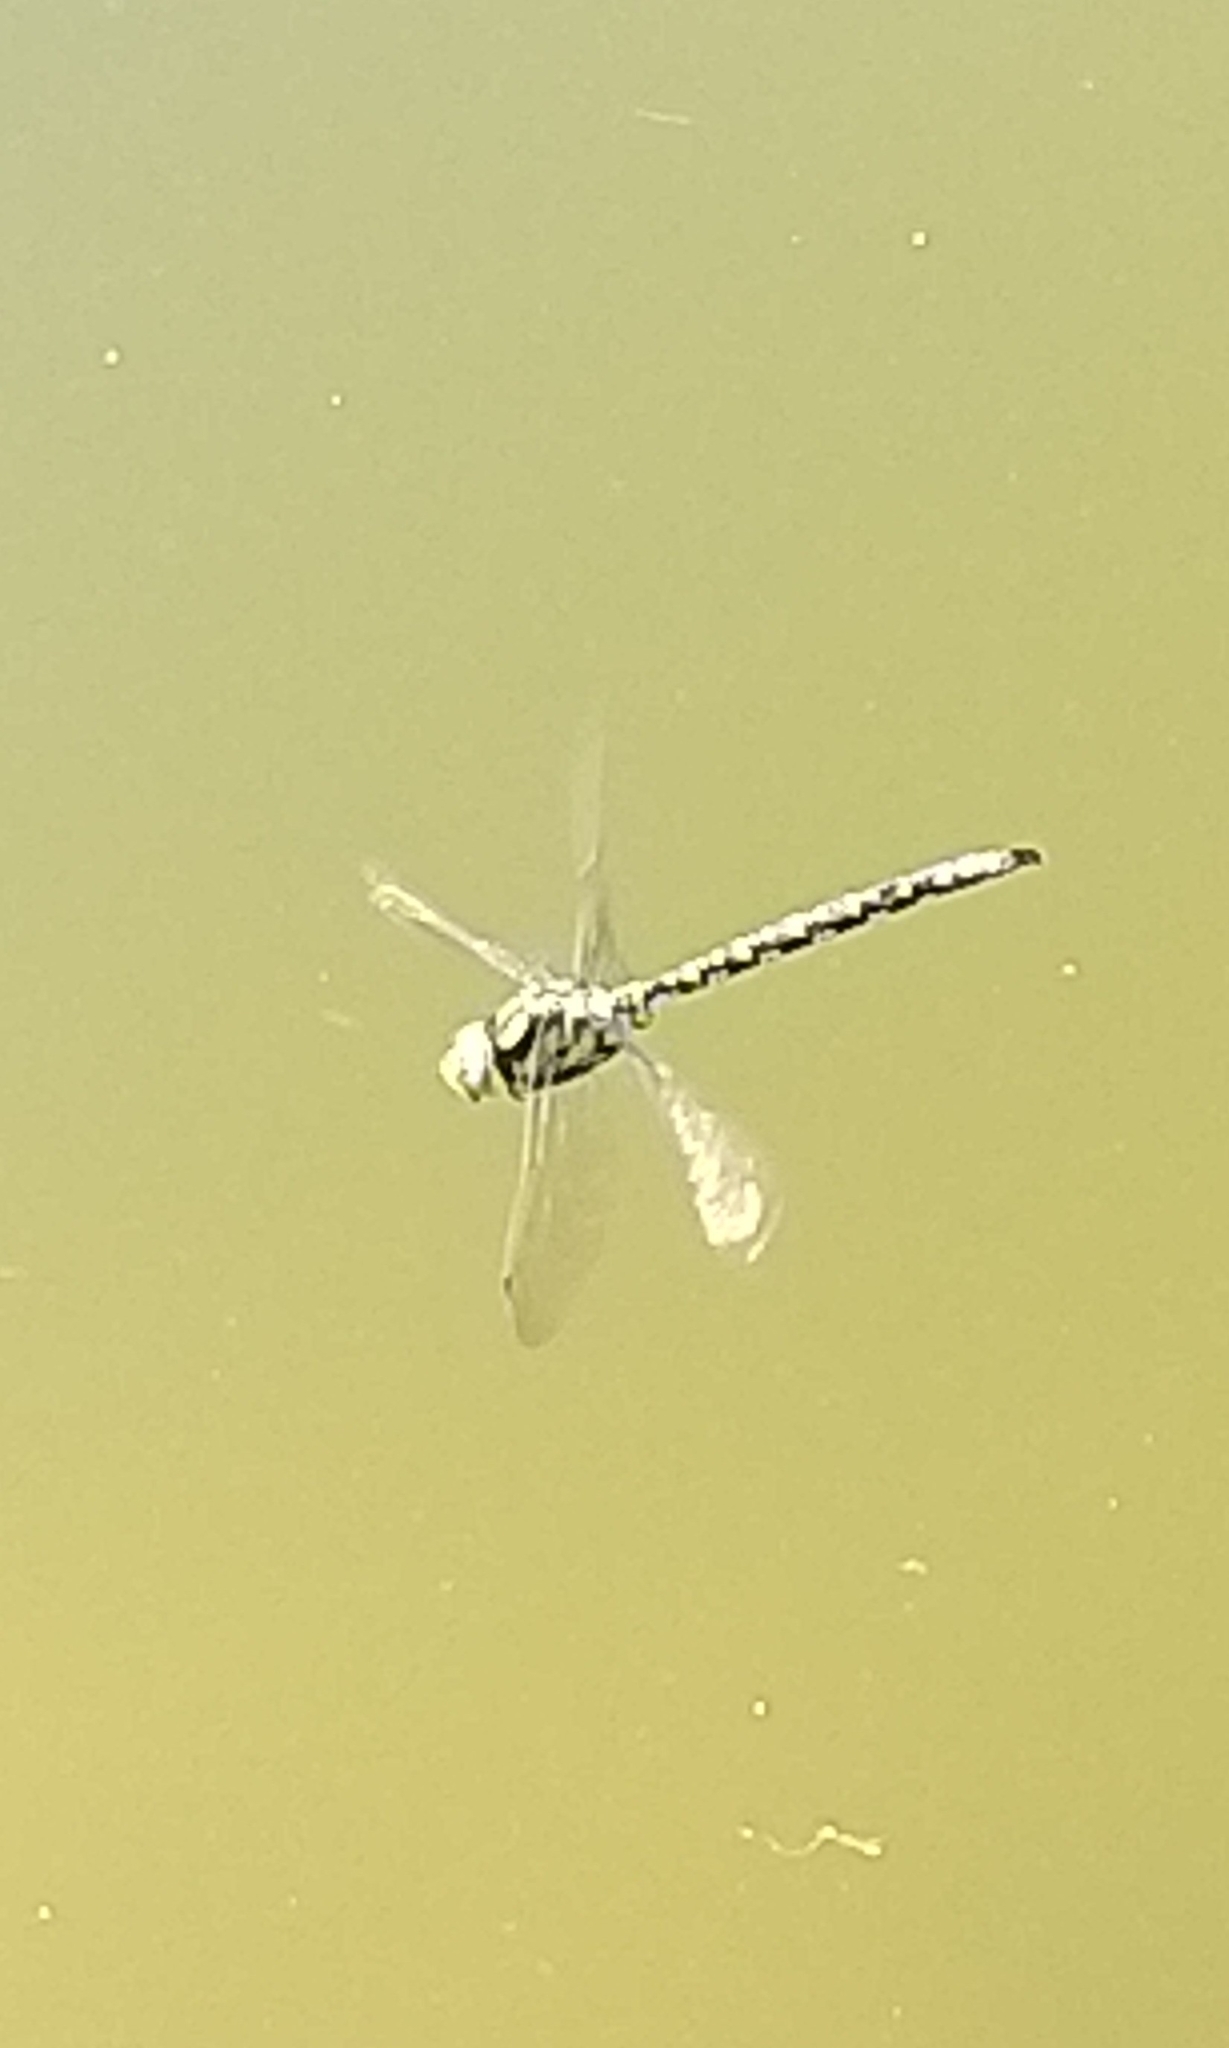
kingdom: Animalia
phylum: Arthropoda
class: Insecta
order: Odonata
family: Aeshnidae
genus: Aeshna
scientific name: Aeshna cyanea
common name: Southern hawker
